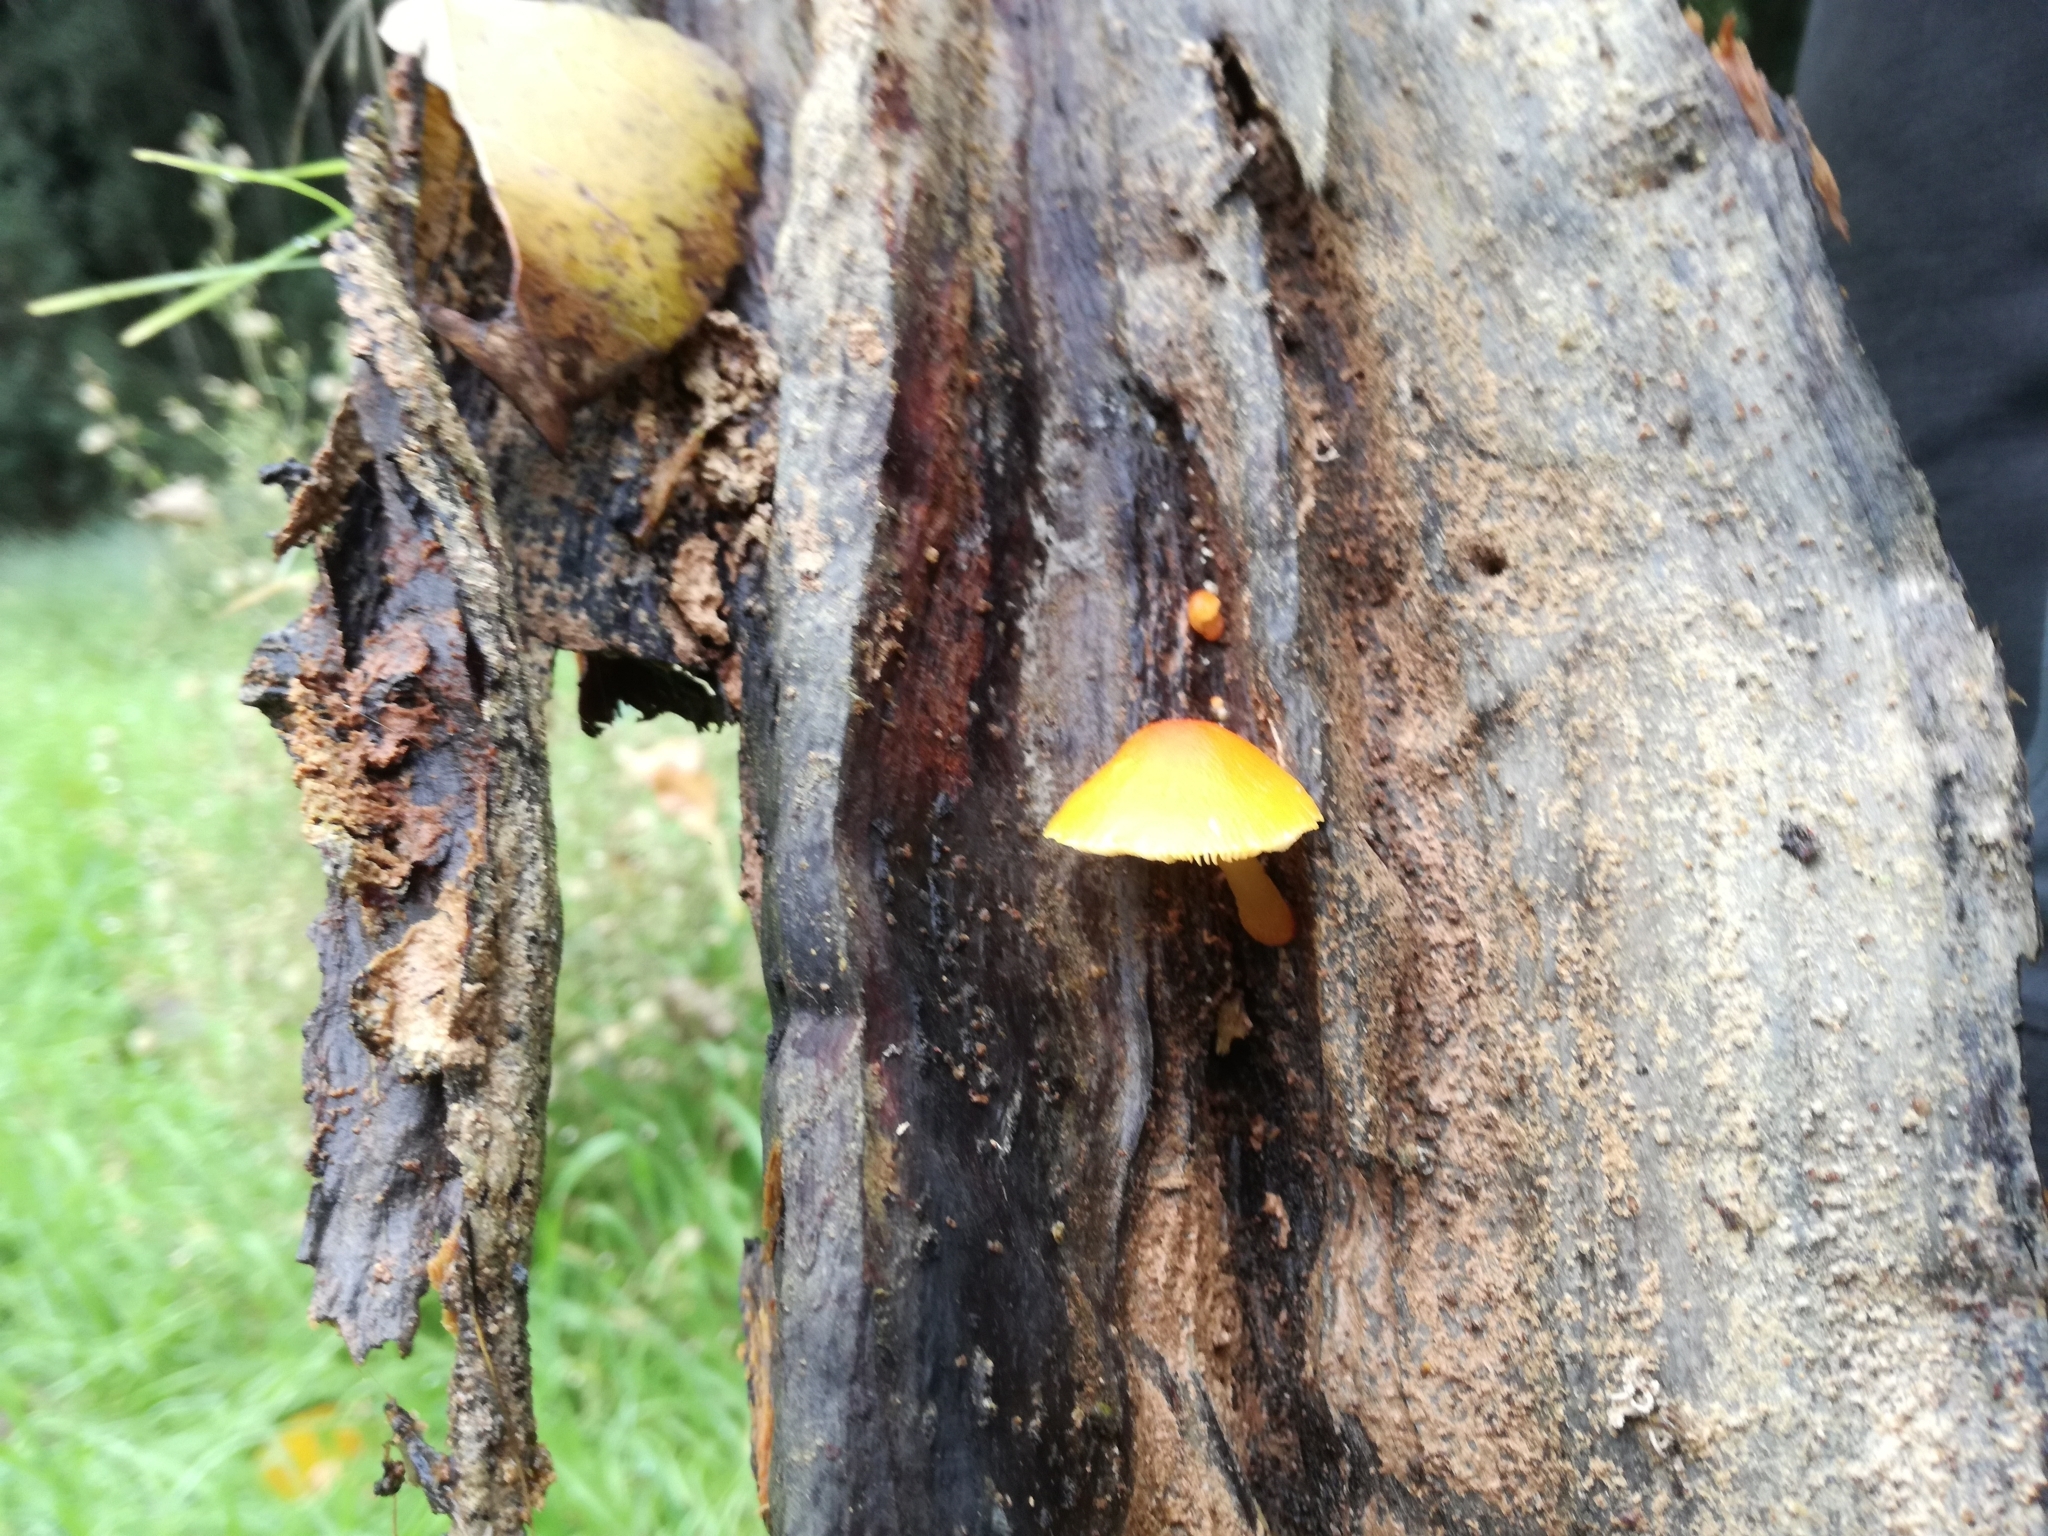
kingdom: Fungi
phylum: Basidiomycota
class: Agaricomycetes
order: Agaricales
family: Pluteaceae
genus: Pluteus
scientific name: Pluteus aurantiorugosus
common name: Flame shield
